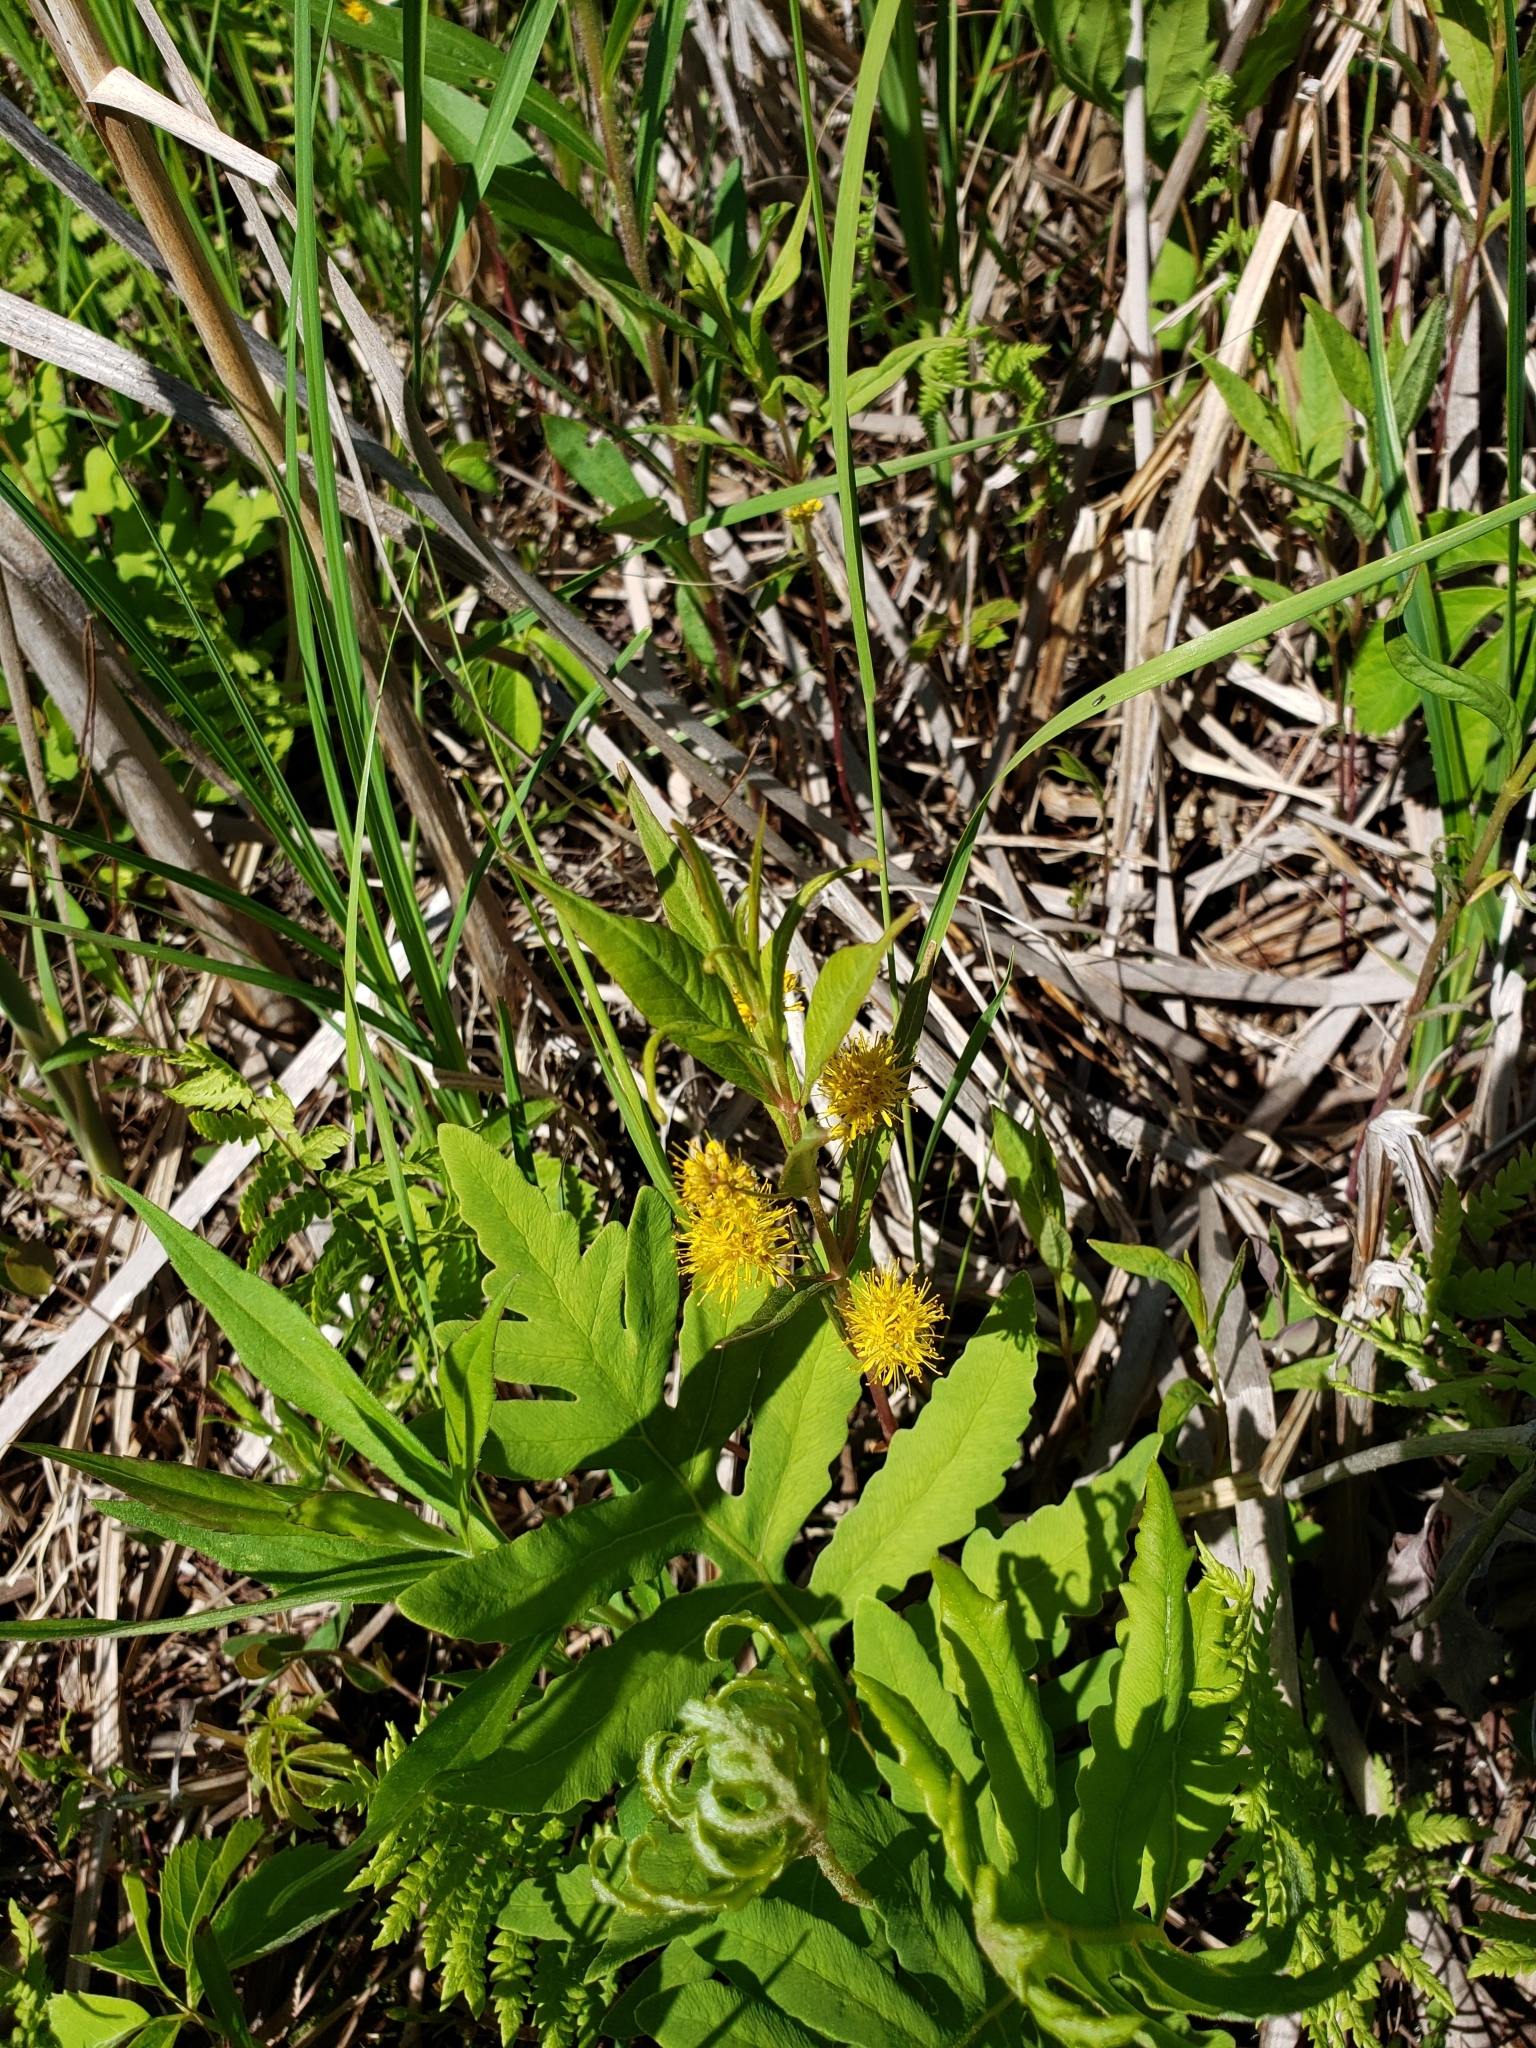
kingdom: Plantae
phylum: Tracheophyta
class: Magnoliopsida
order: Ericales
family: Primulaceae
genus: Lysimachia
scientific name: Lysimachia thyrsiflora
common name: Tufted loosestrife
